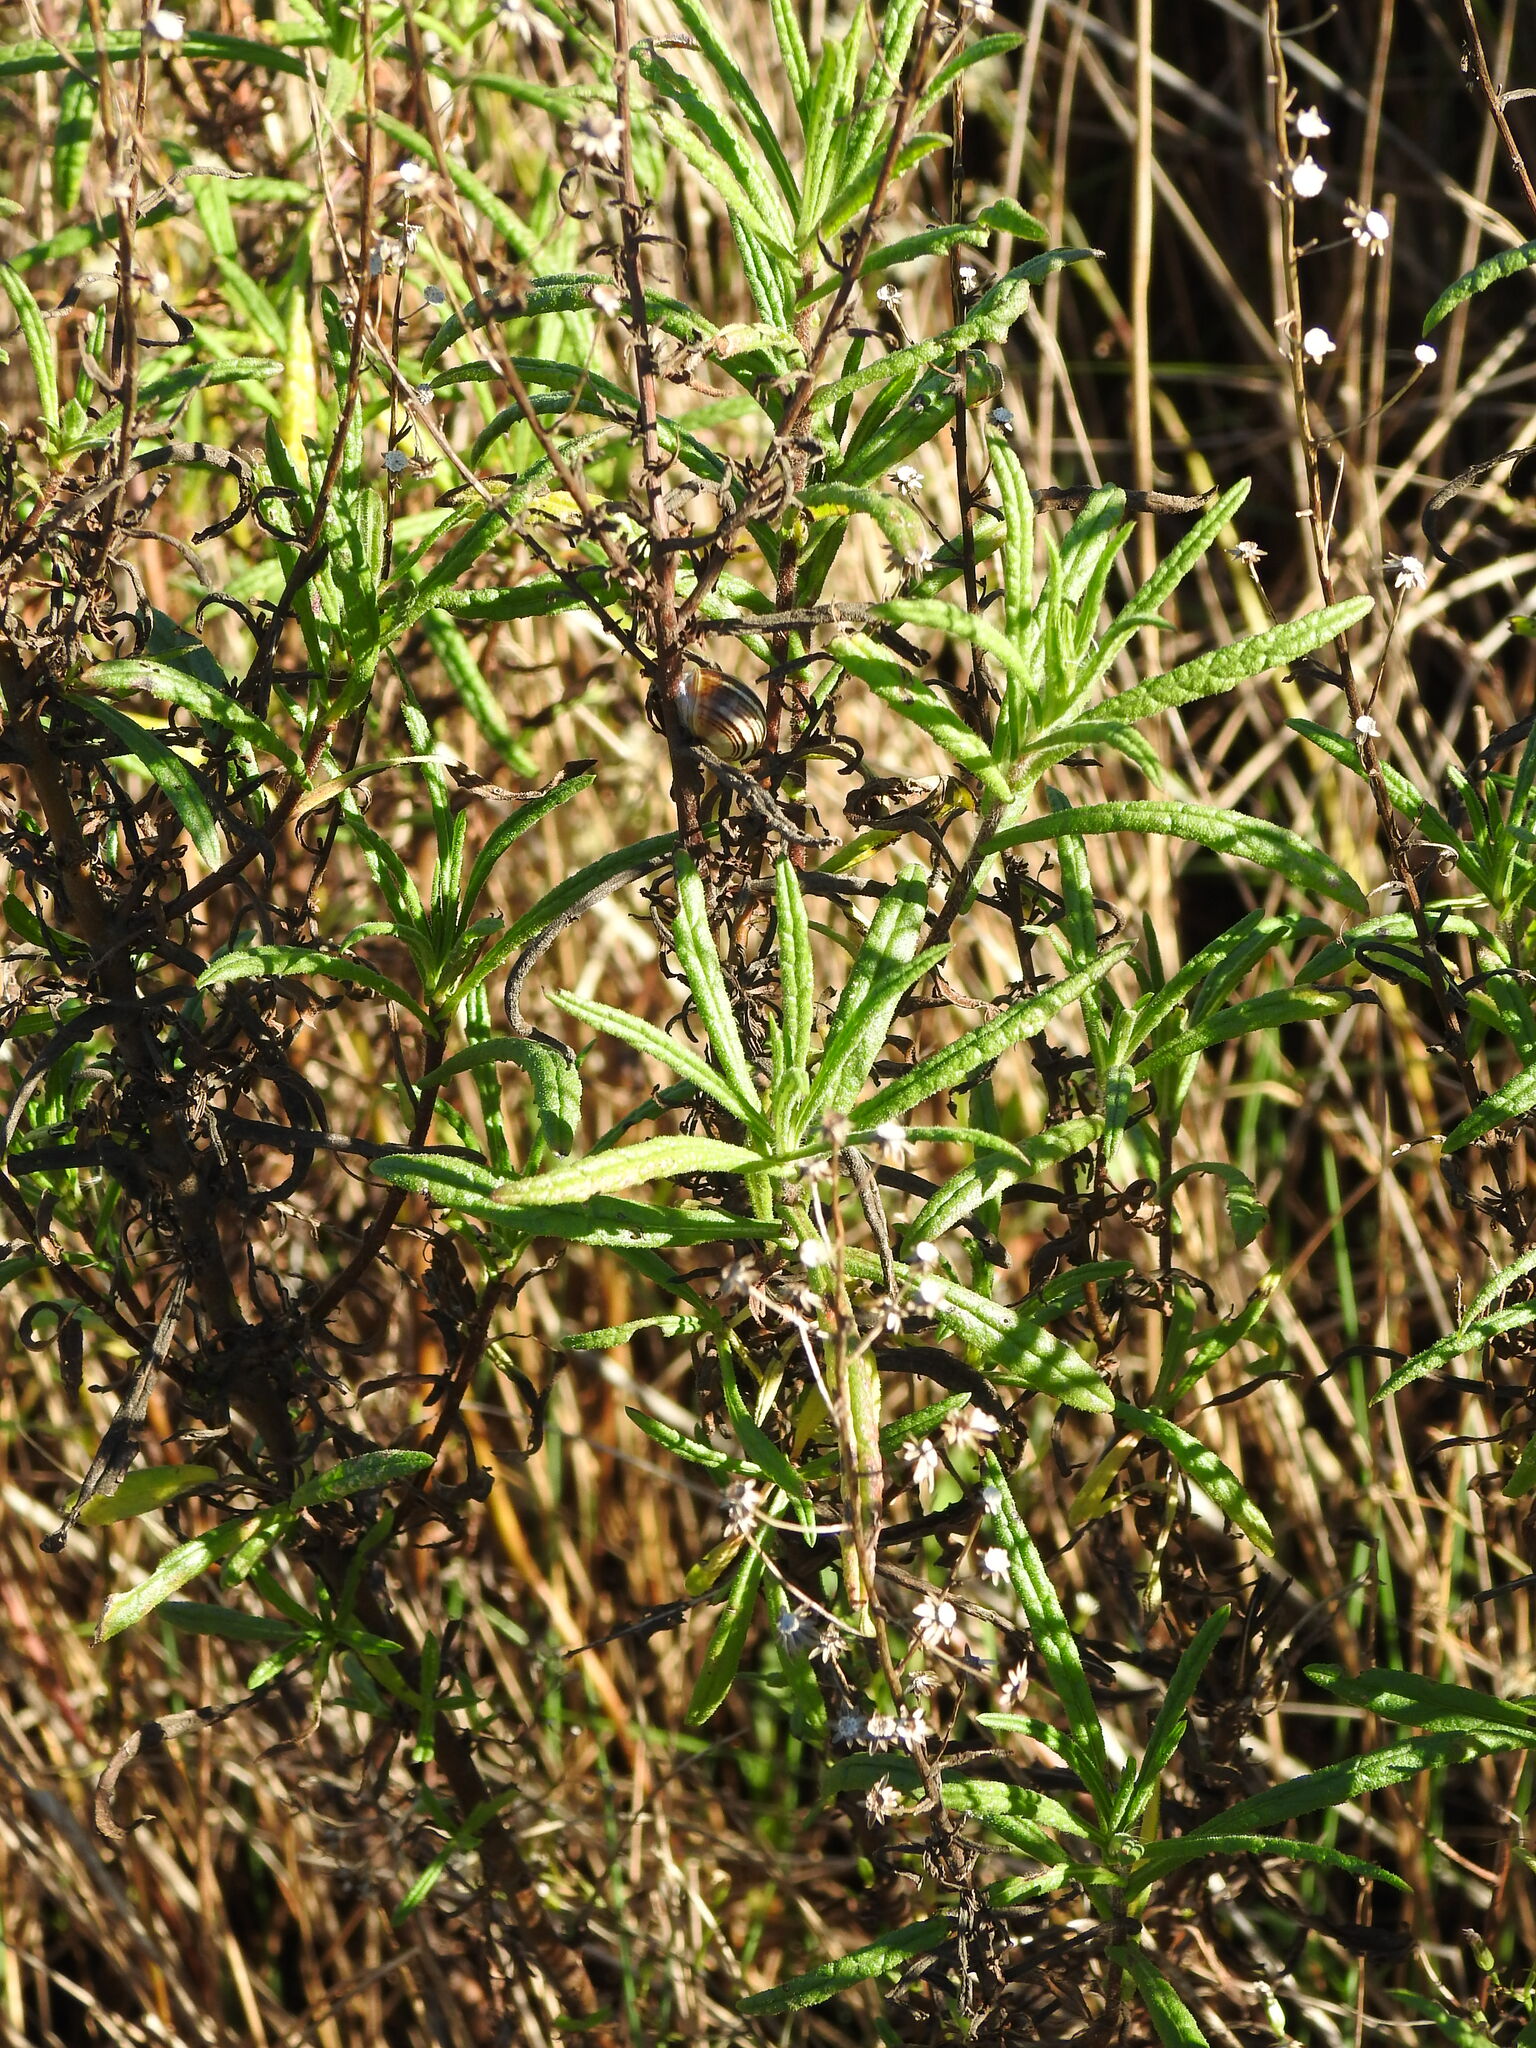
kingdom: Plantae
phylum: Tracheophyta
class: Magnoliopsida
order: Asterales
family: Asteraceae
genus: Dittrichia
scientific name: Dittrichia viscosa
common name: Woody fleabane
